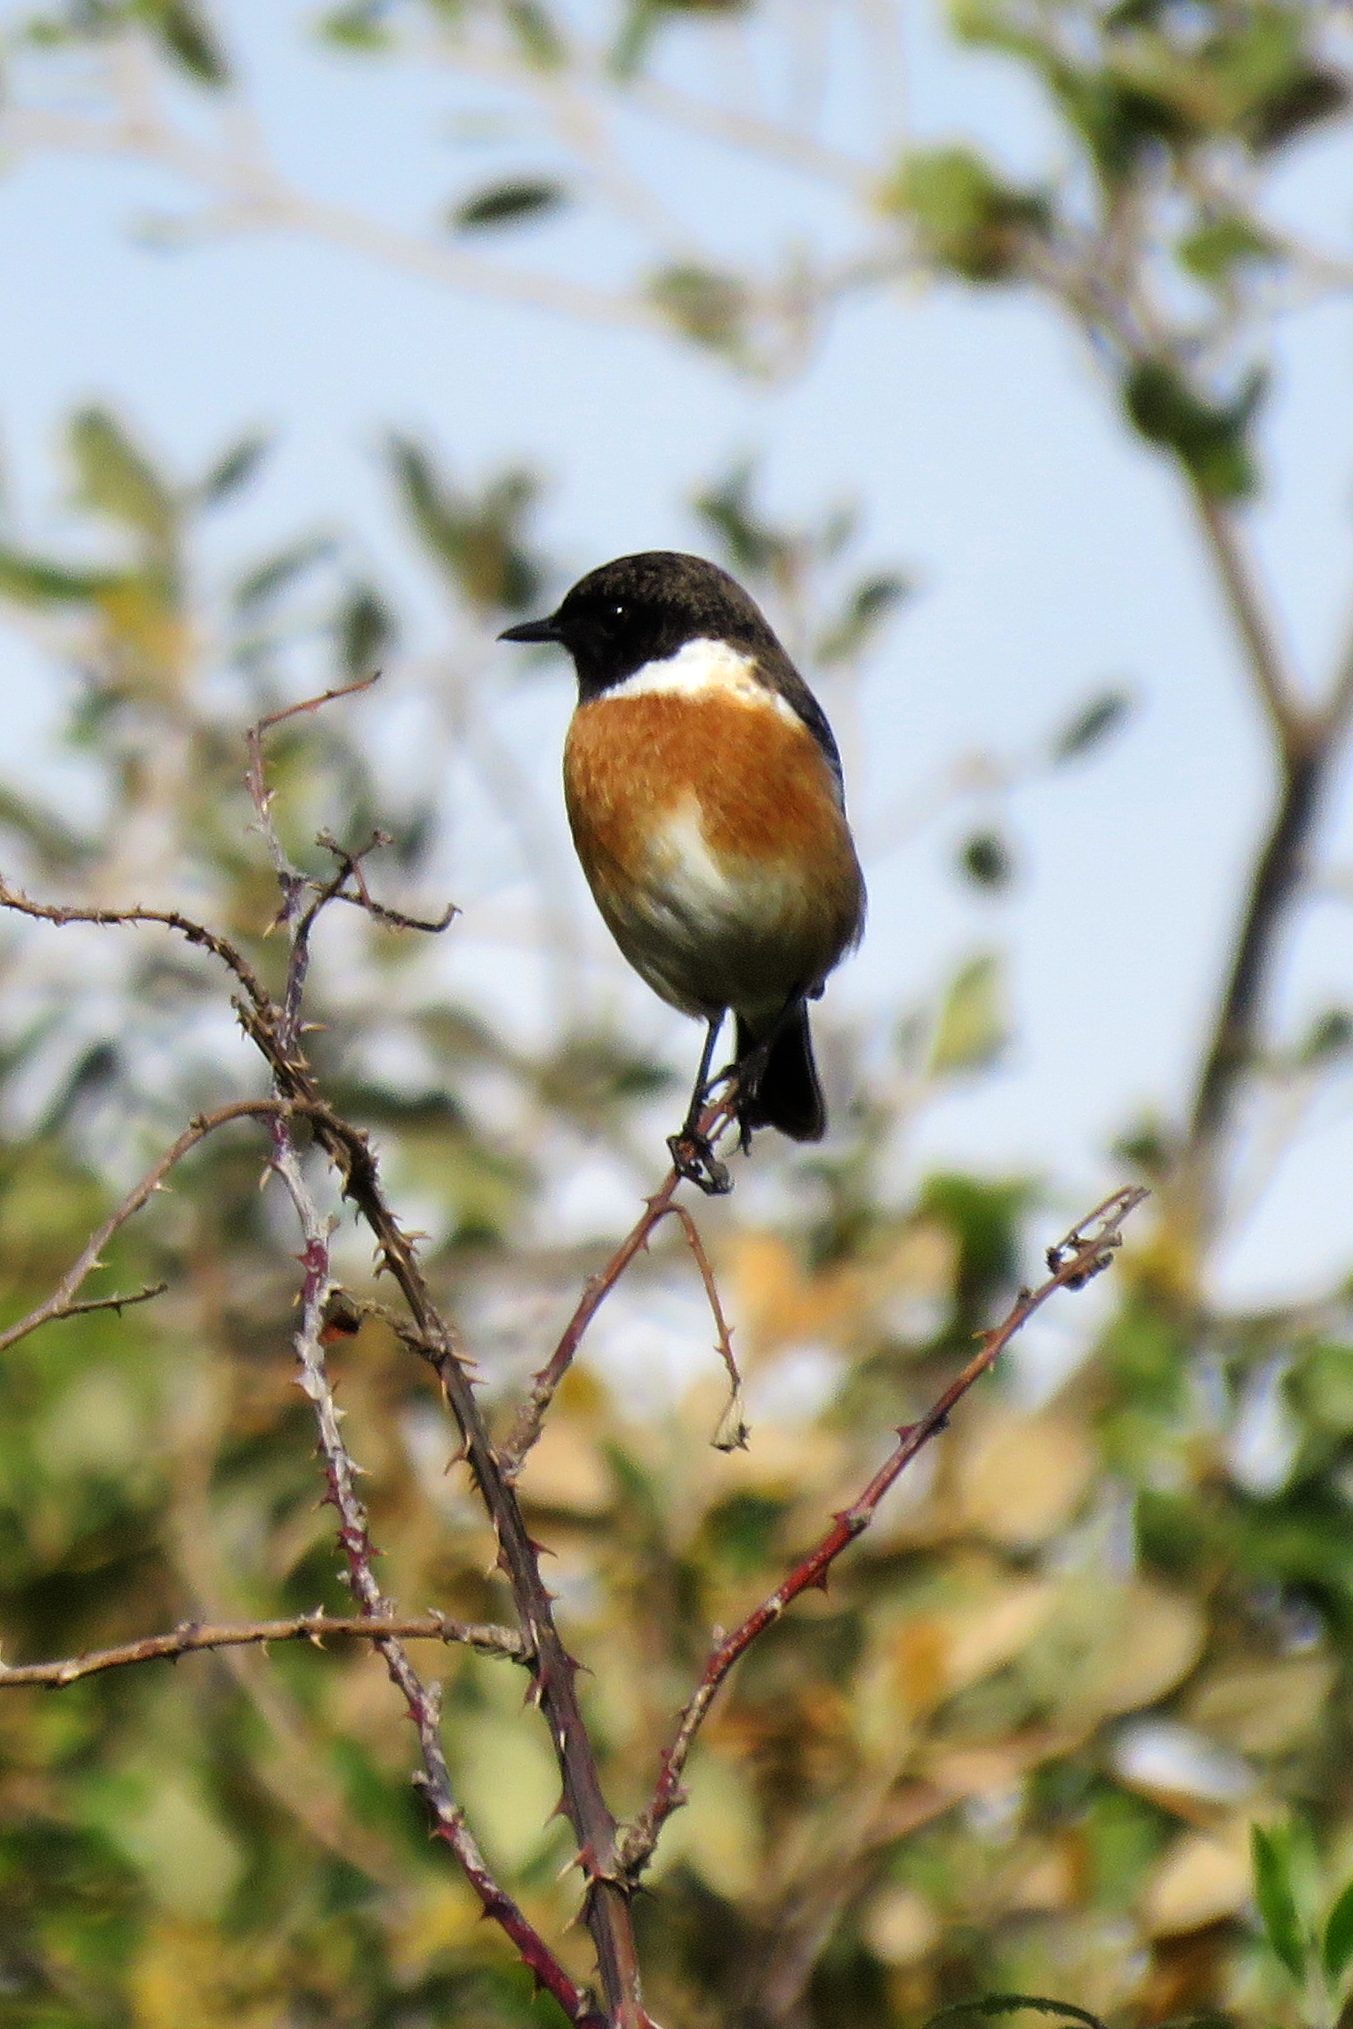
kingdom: Animalia
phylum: Chordata
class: Aves
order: Passeriformes
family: Muscicapidae
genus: Saxicola
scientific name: Saxicola rubicola
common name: European stonechat
